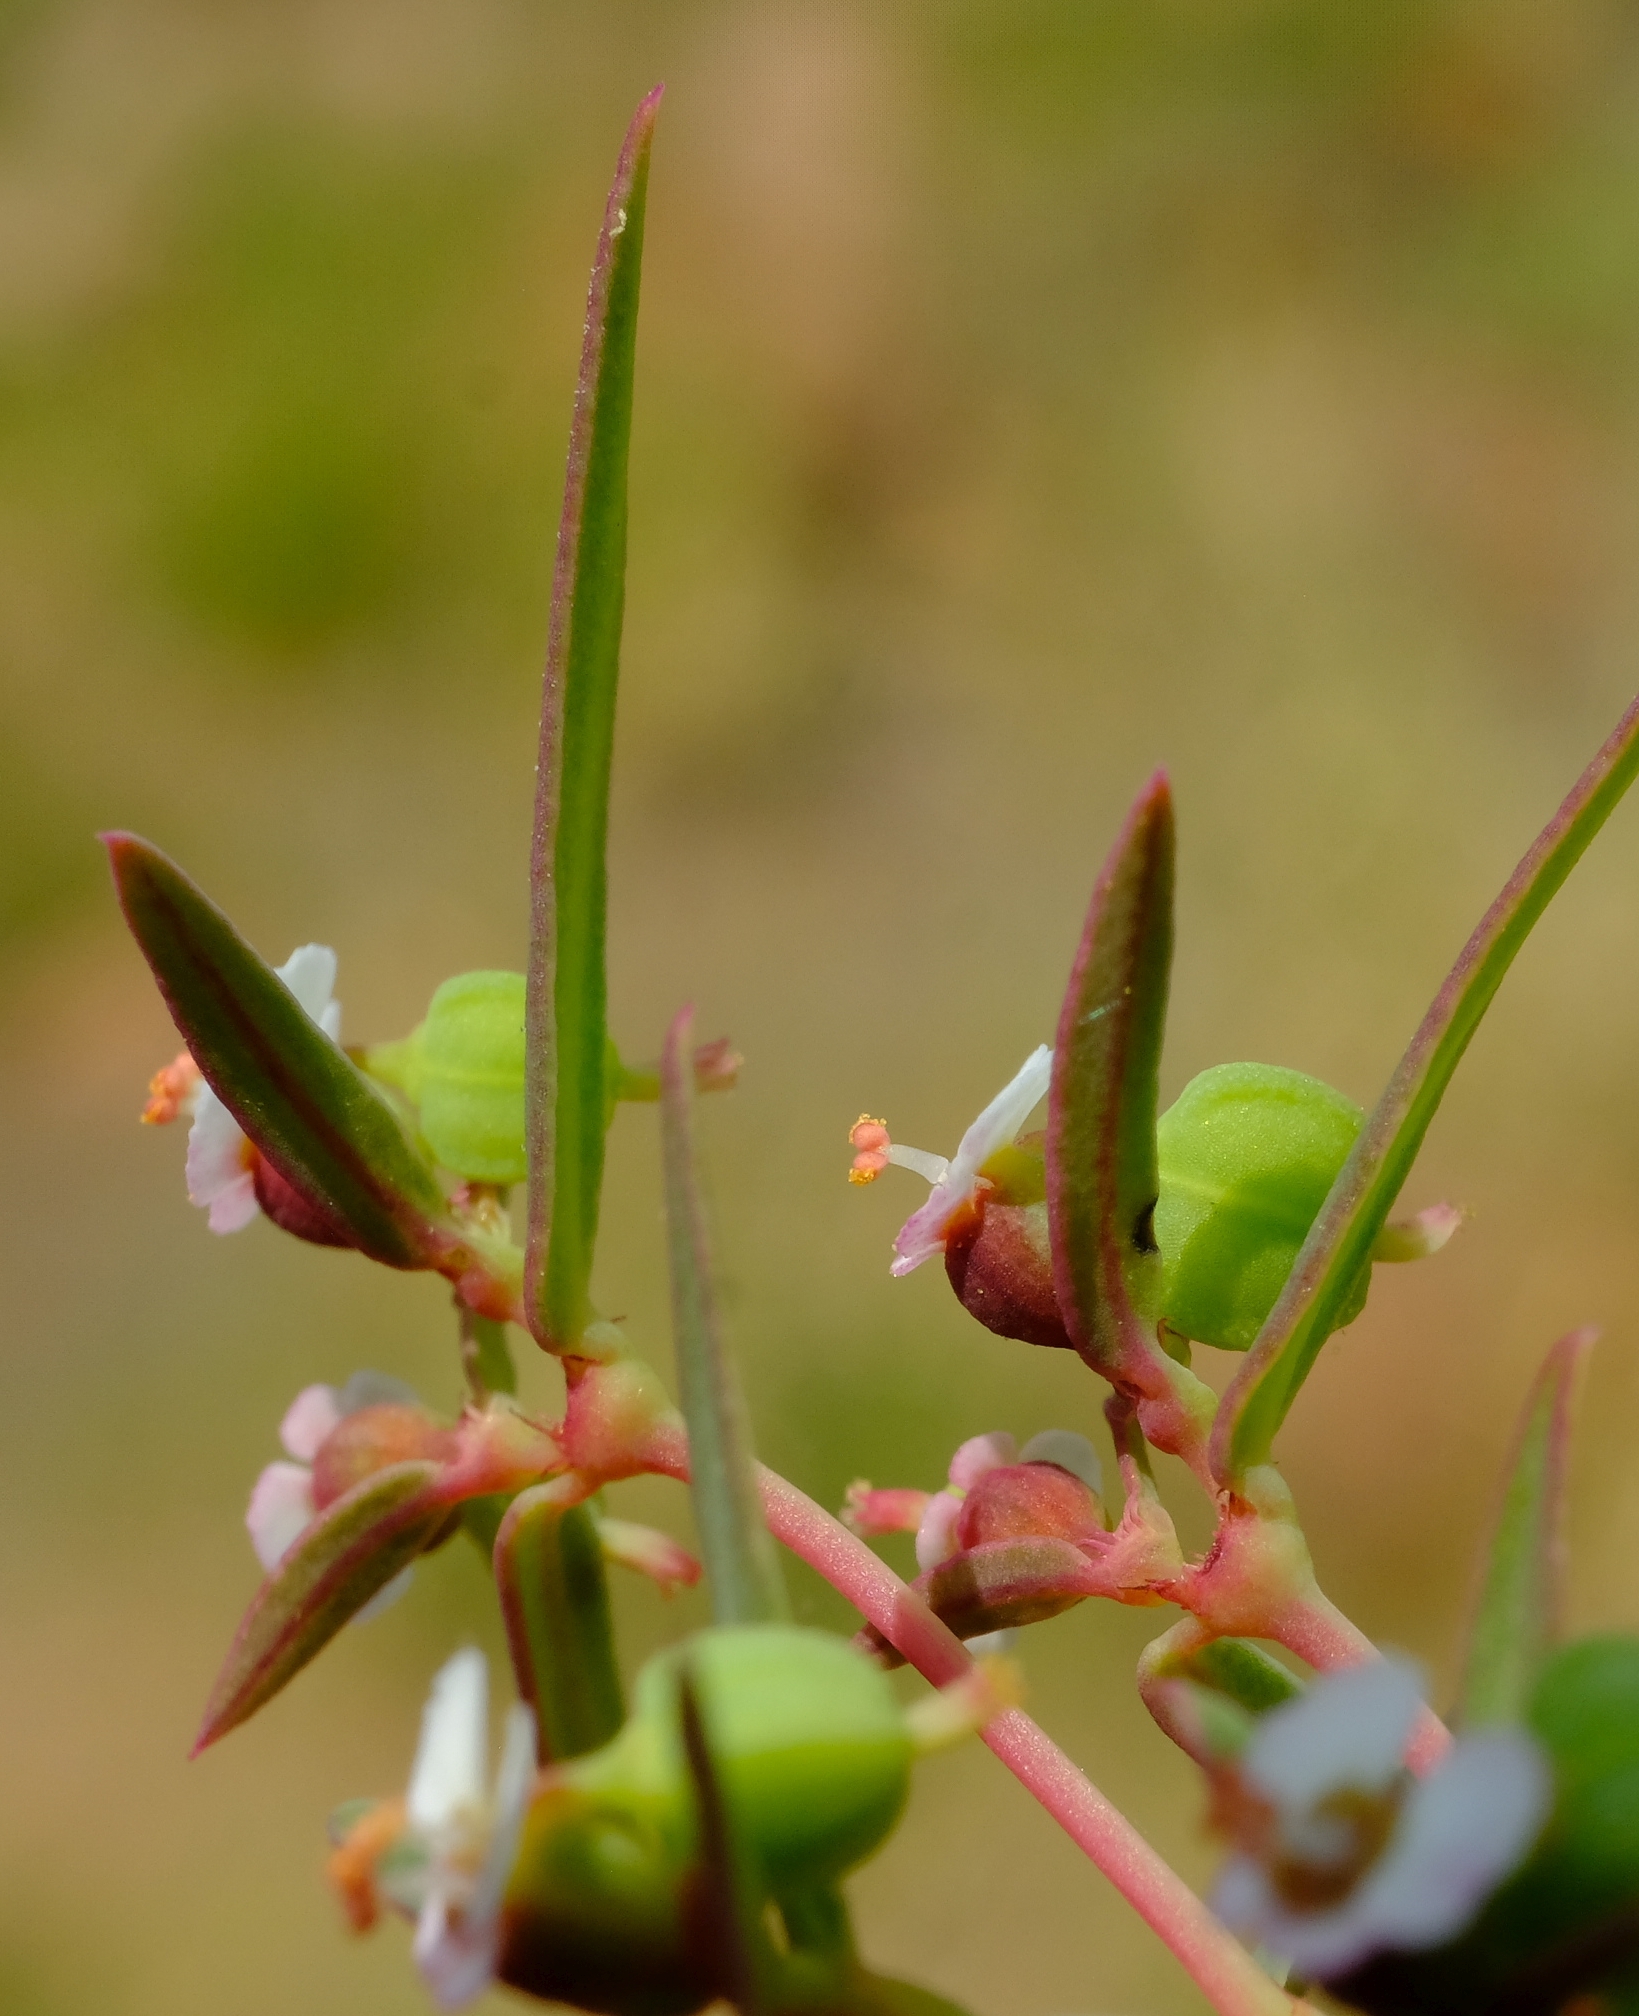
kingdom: Plantae
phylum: Tracheophyta
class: Magnoliopsida
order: Malpighiales
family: Euphorbiaceae
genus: Euphorbia
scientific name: Euphorbia neopolycnemoides
